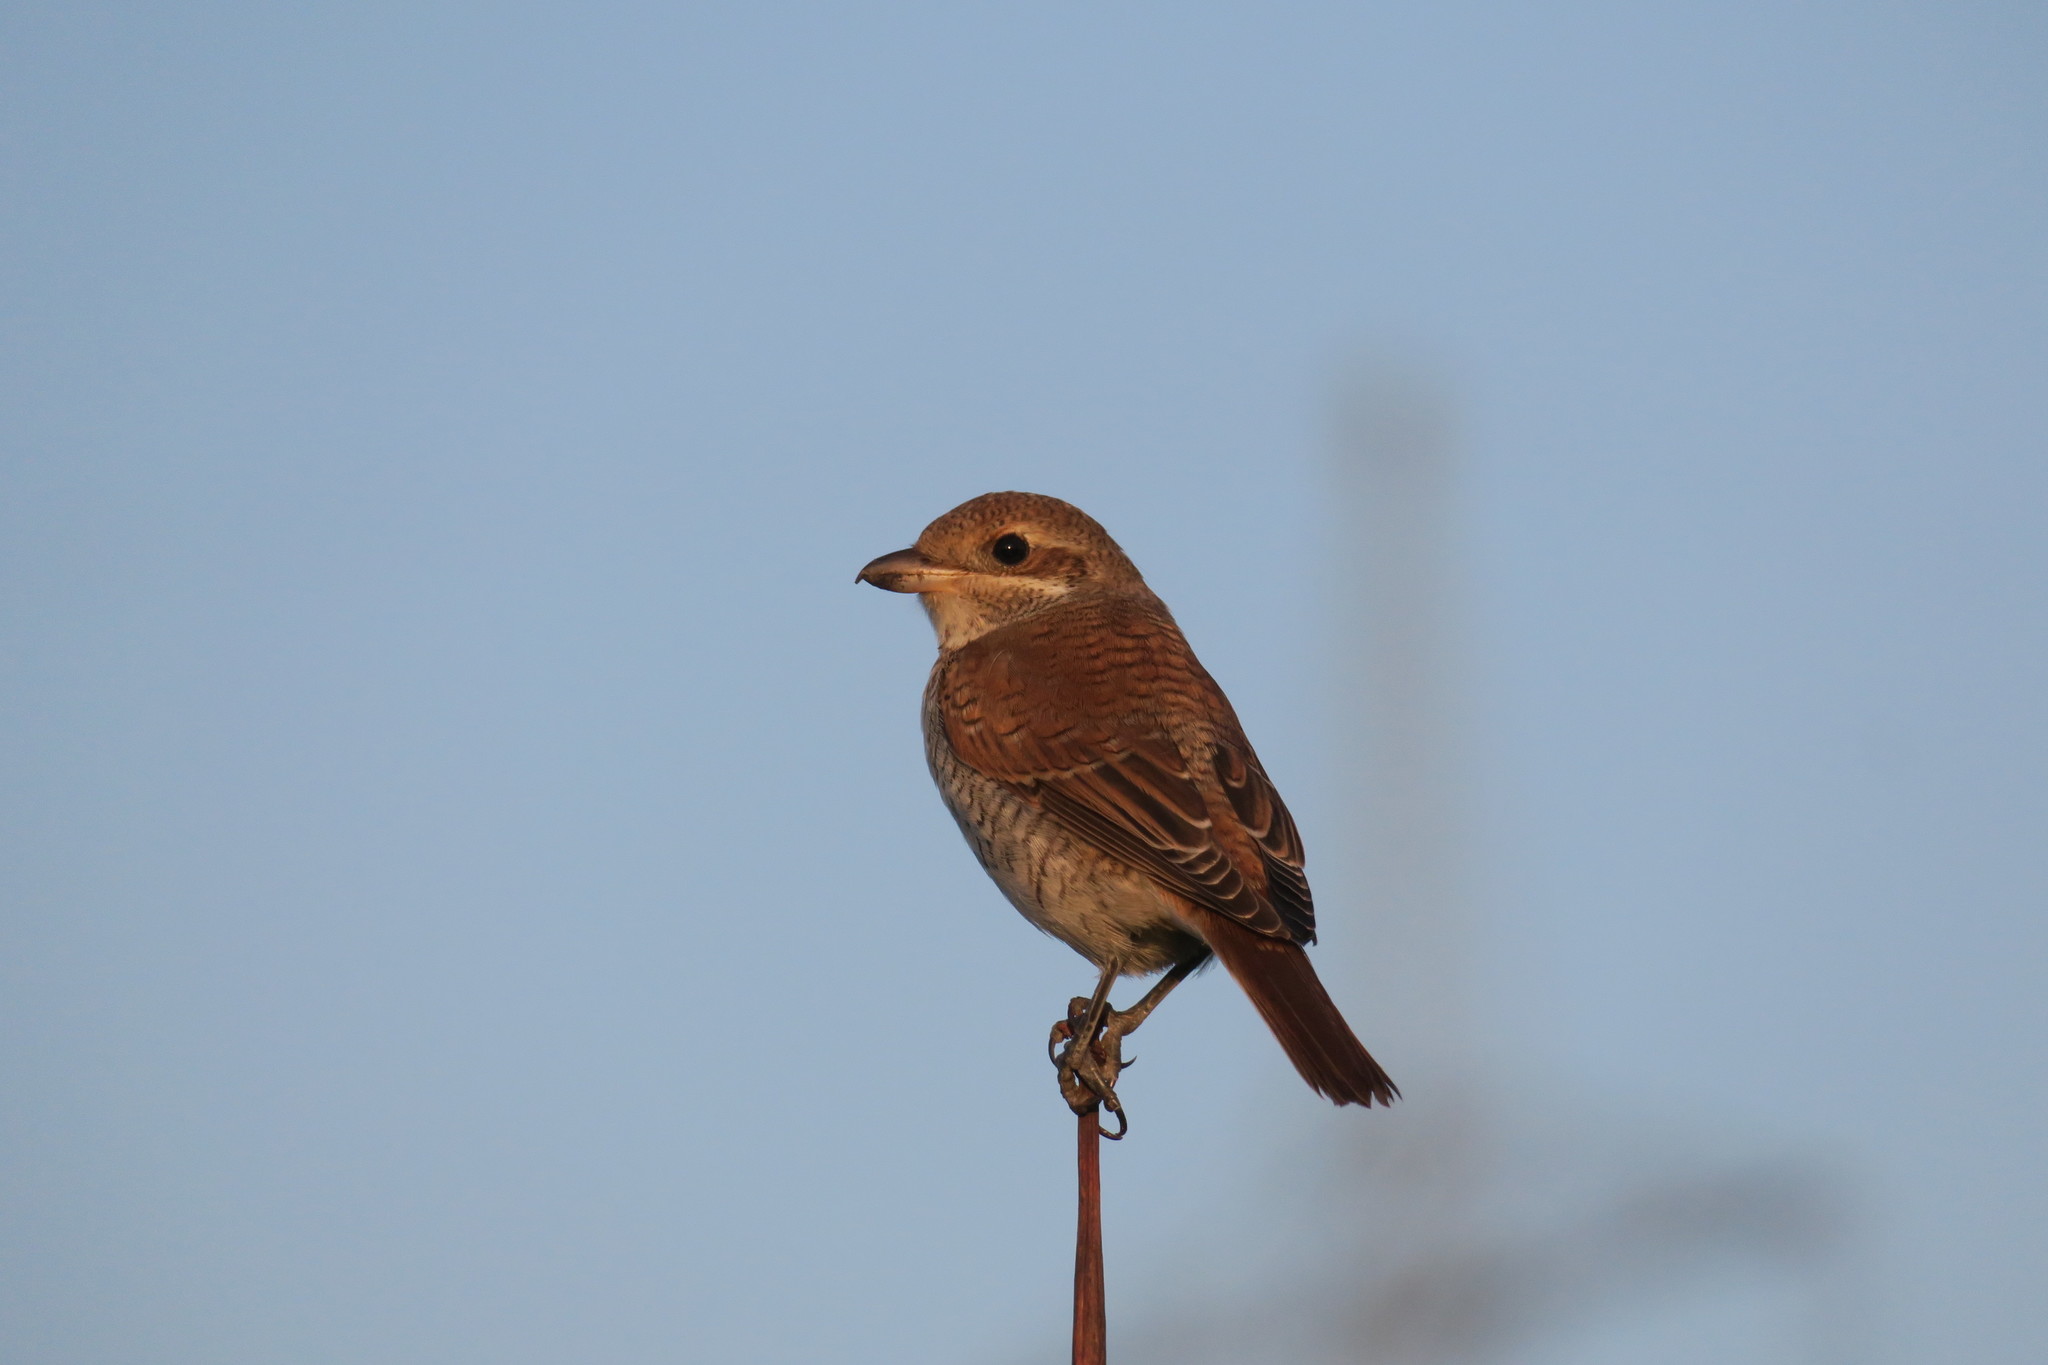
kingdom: Animalia
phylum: Chordata
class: Aves
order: Passeriformes
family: Laniidae
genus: Lanius
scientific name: Lanius collurio
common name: Red-backed shrike
